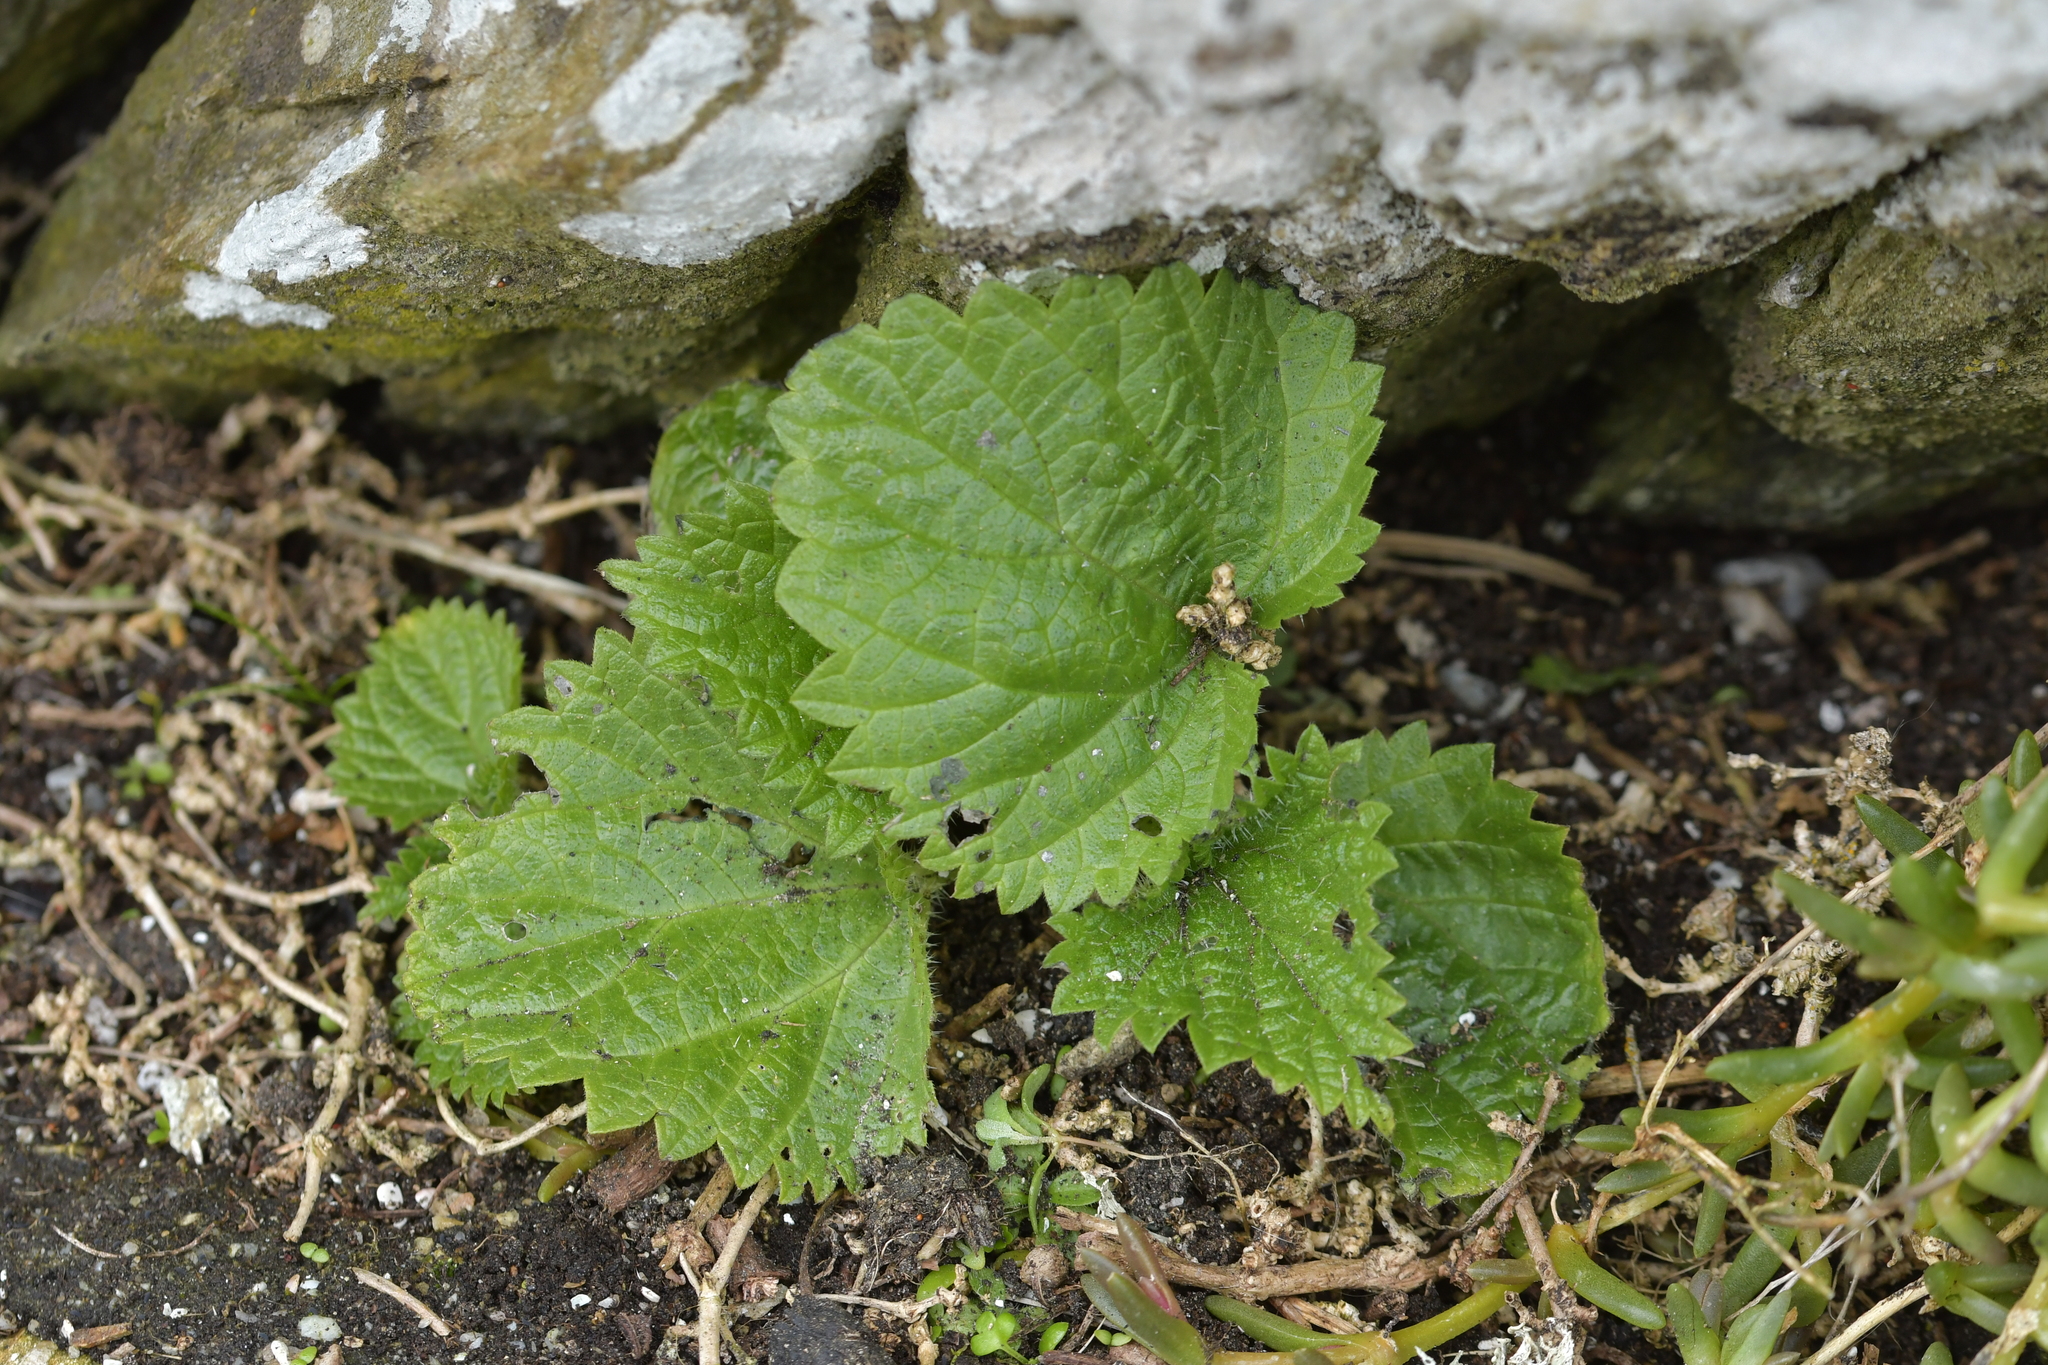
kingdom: Plantae
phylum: Tracheophyta
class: Magnoliopsida
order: Rosales
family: Urticaceae
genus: Urtica
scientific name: Urtica australis
